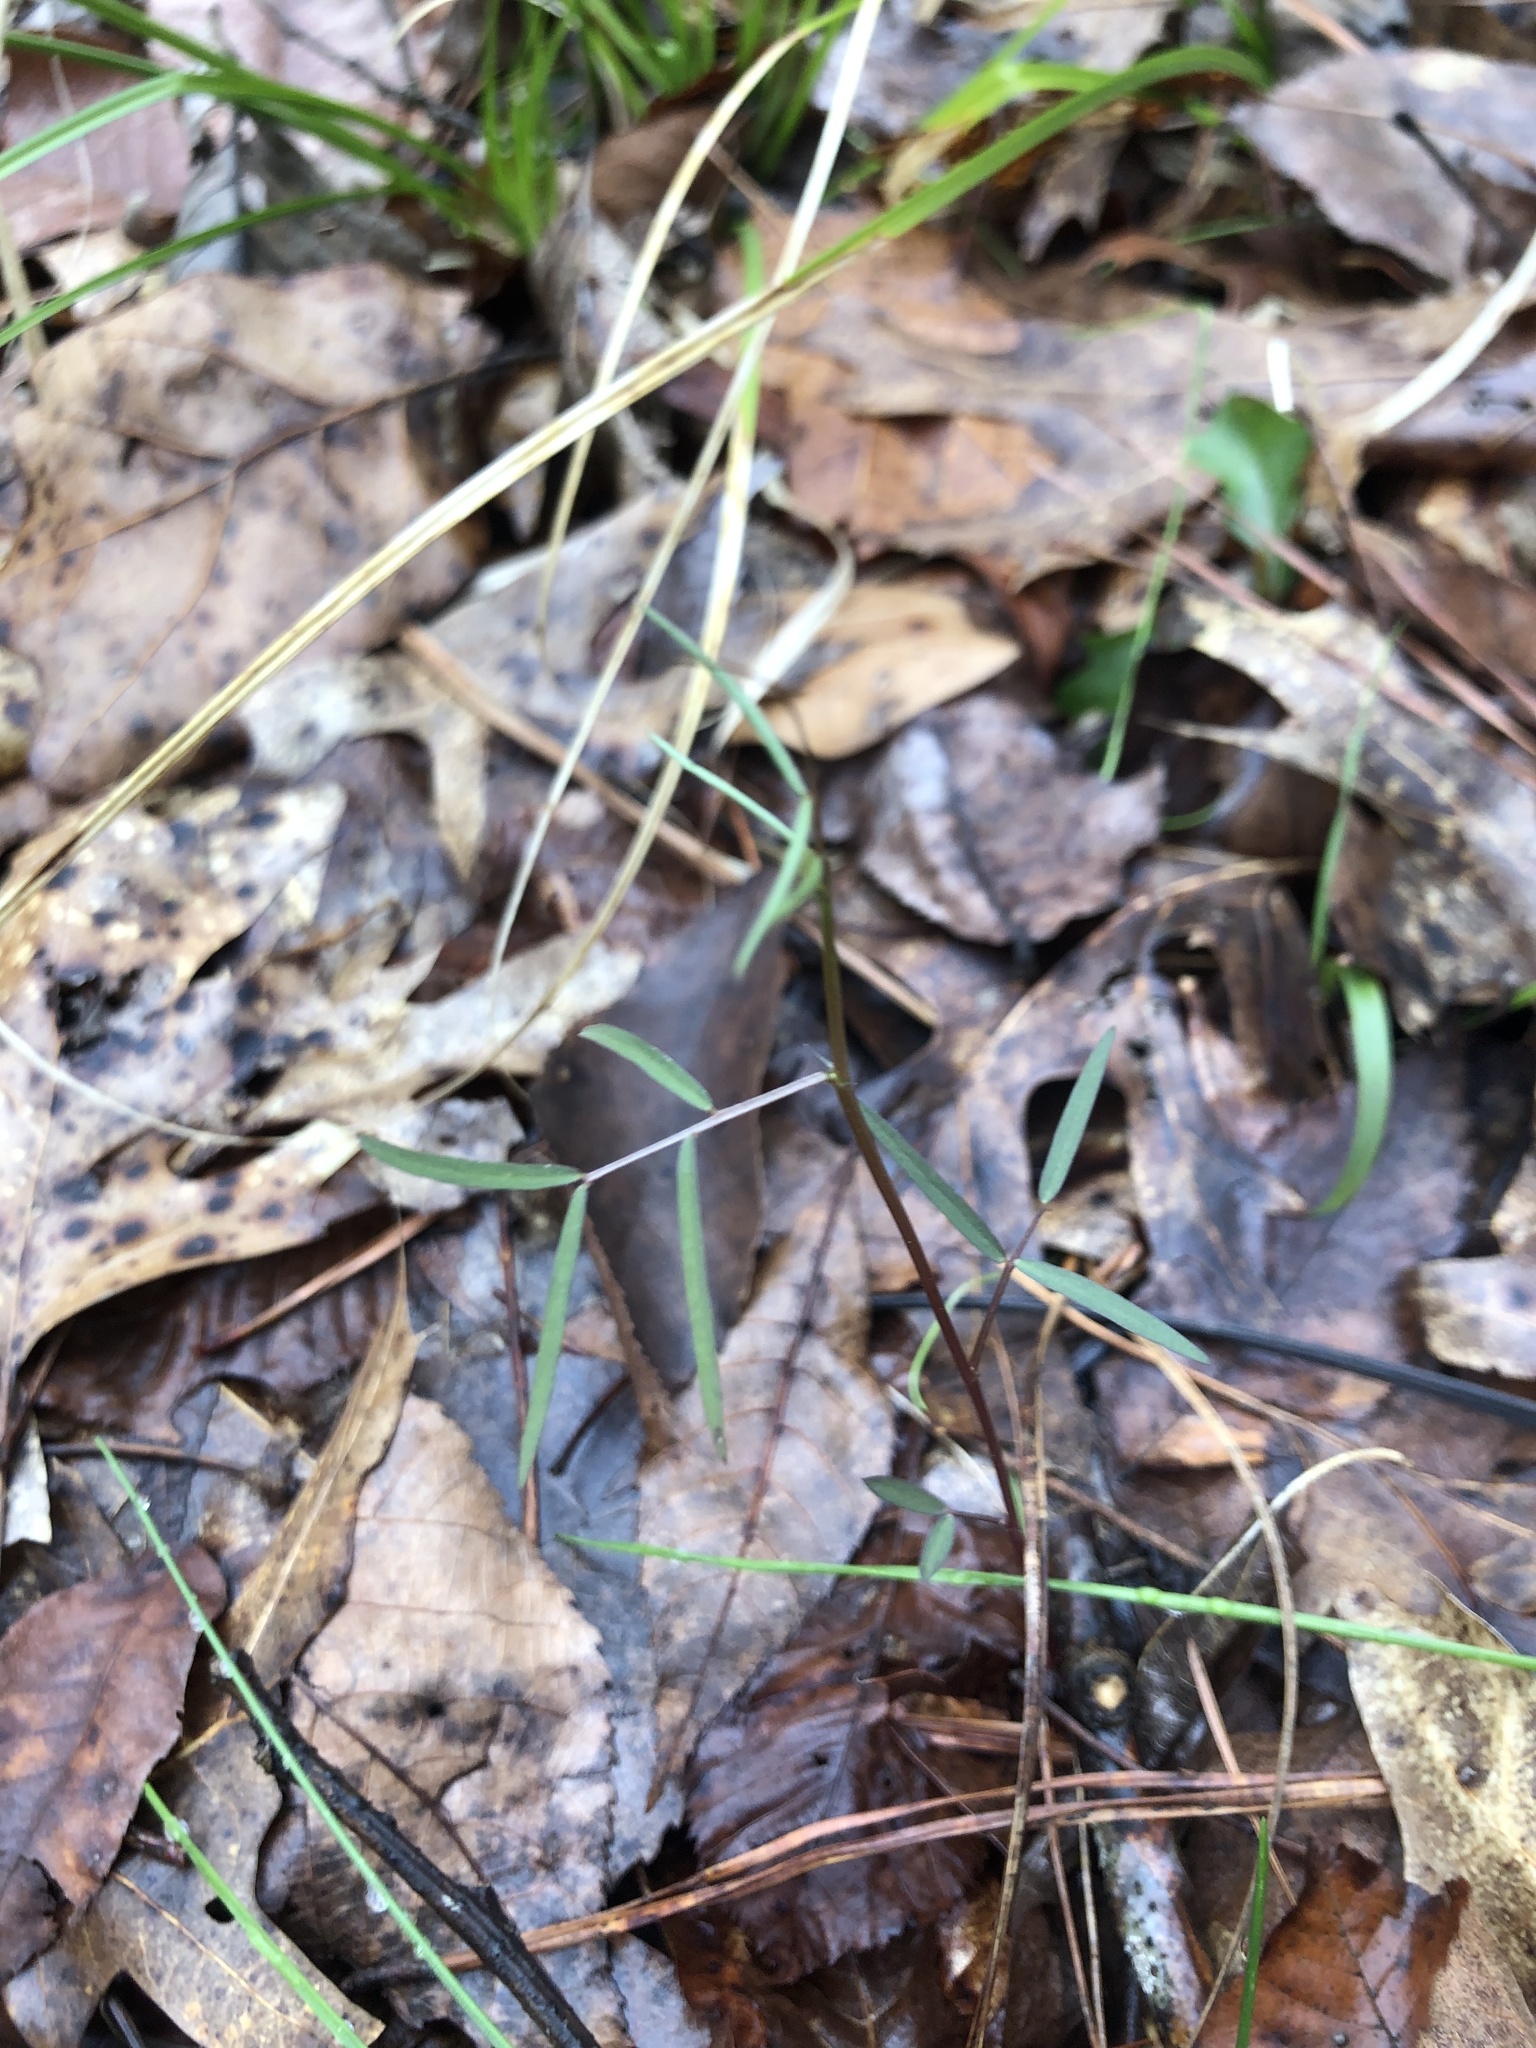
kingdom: Plantae
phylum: Tracheophyta
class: Magnoliopsida
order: Fabales
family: Fabaceae
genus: Vicia
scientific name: Vicia minutiflora
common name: Pygmy-flower vetch
